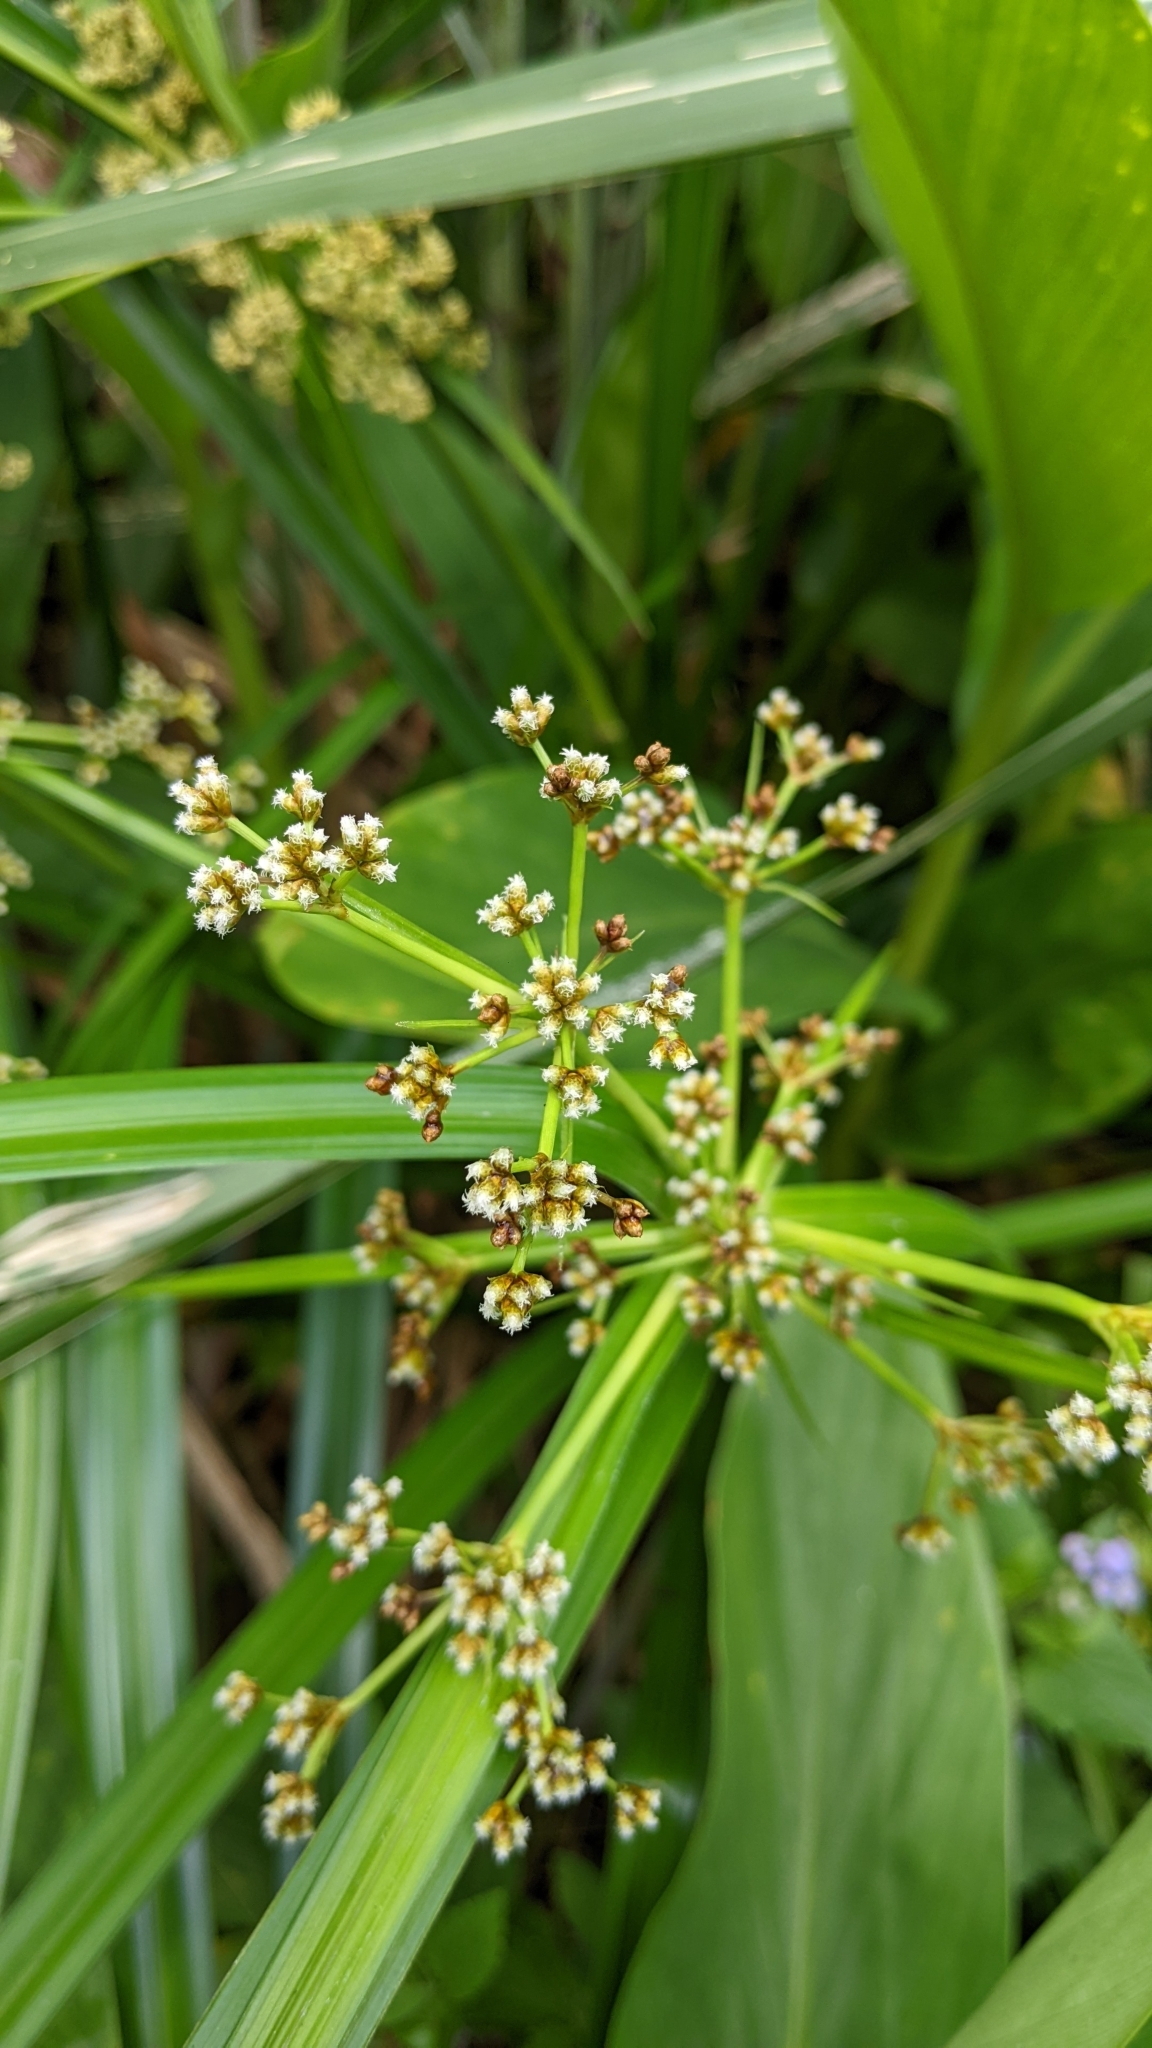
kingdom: Plantae
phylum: Tracheophyta
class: Liliopsida
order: Poales
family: Cyperaceae
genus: Scirpus
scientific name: Scirpus ternatanus
